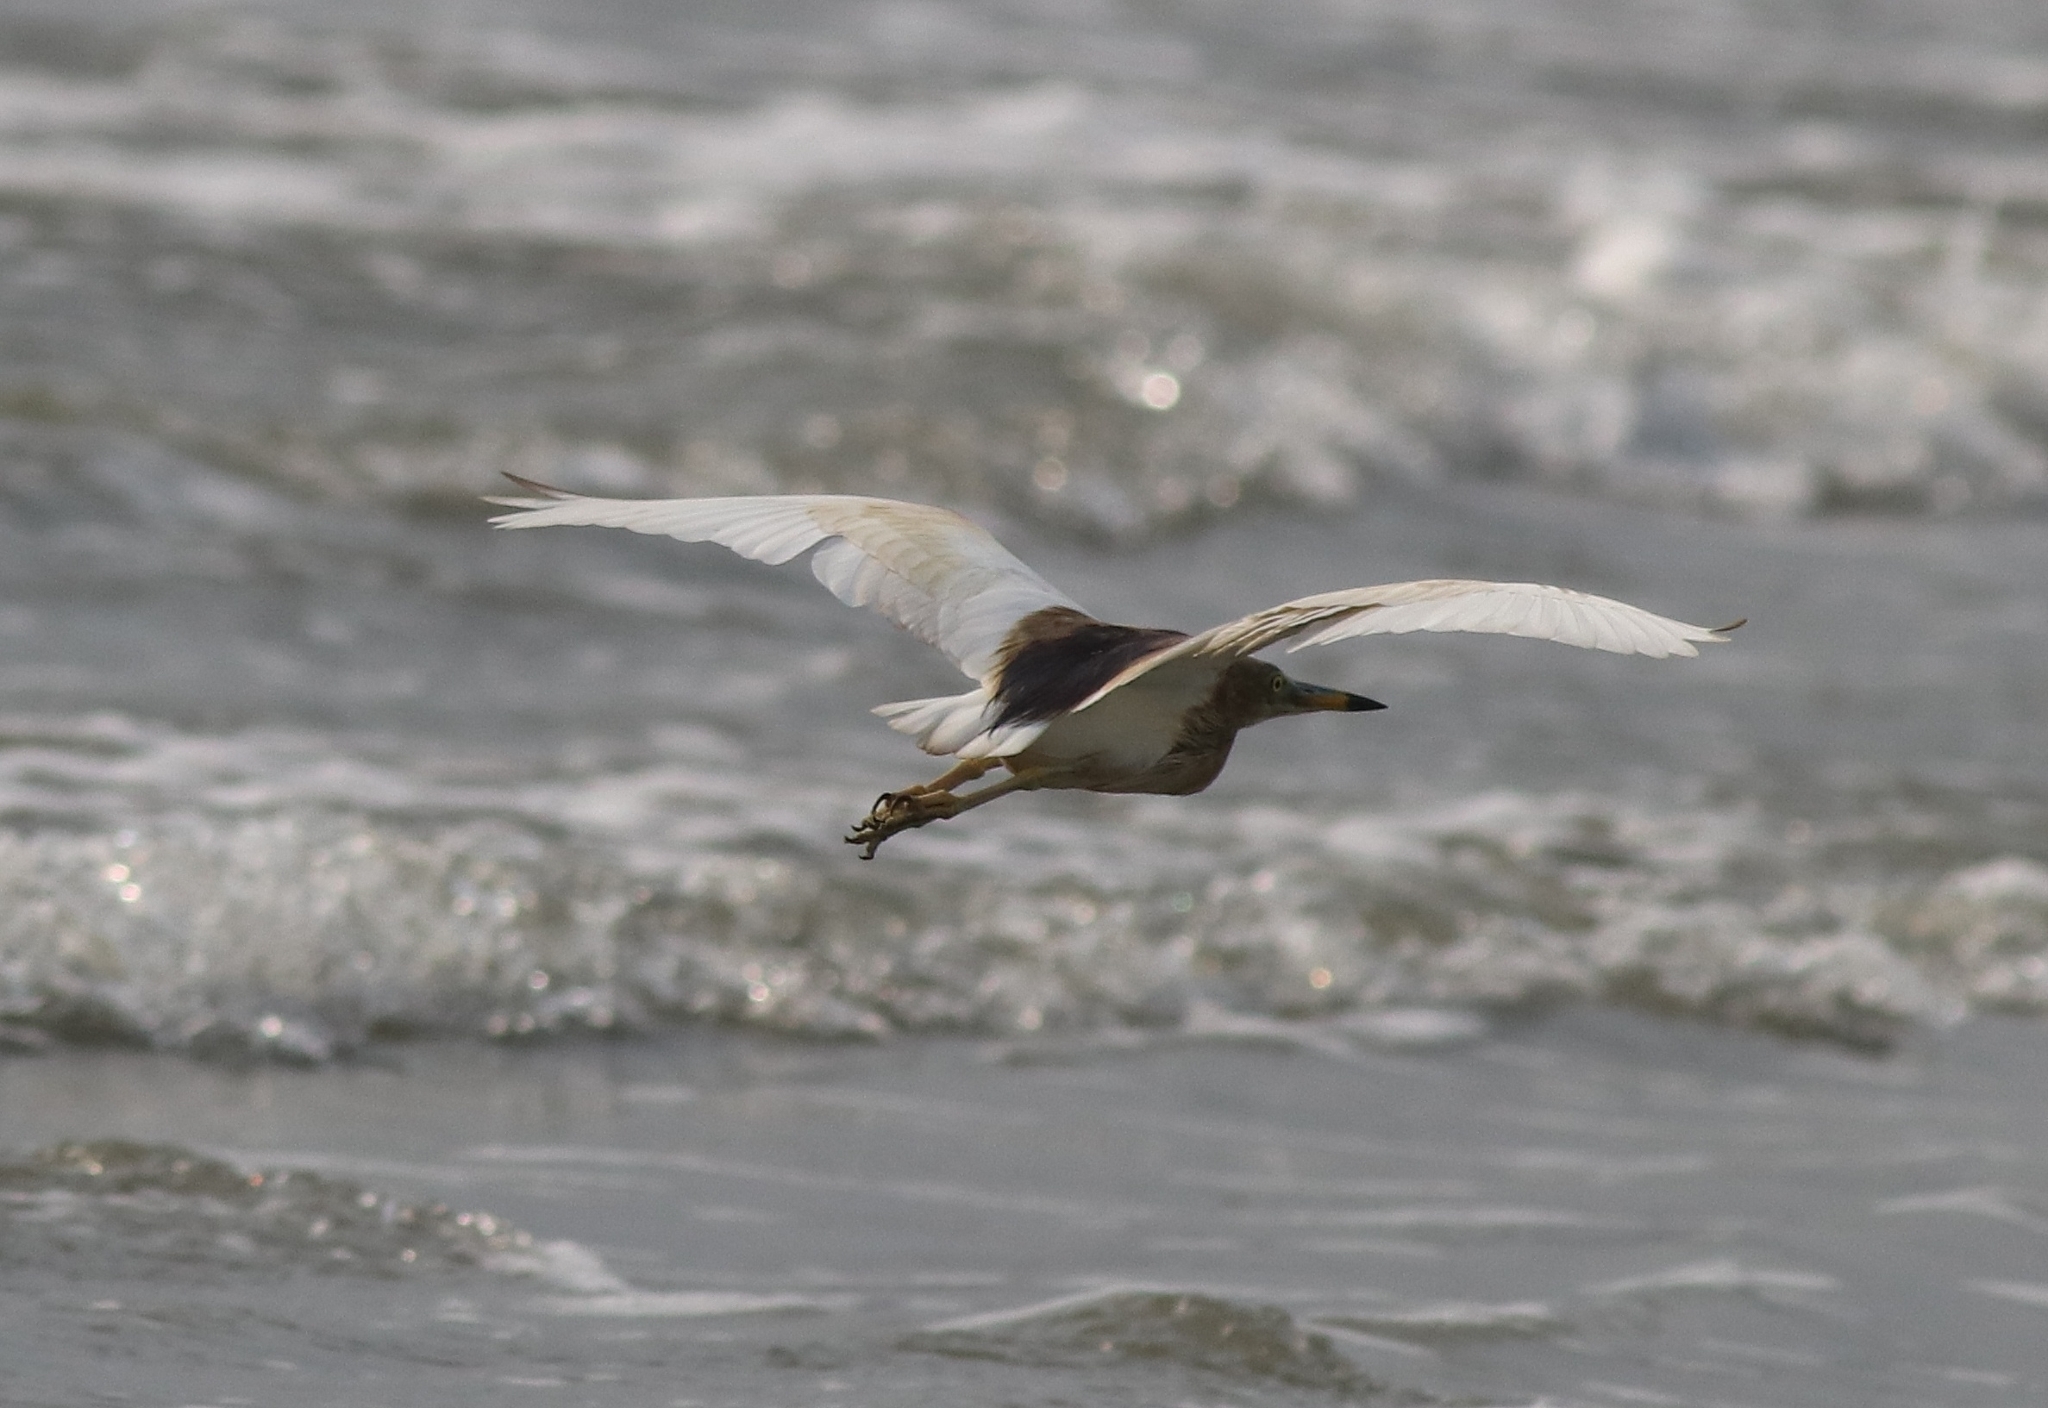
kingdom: Animalia
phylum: Chordata
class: Aves
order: Pelecaniformes
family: Ardeidae
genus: Ardeola
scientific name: Ardeola grayii
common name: Indian pond heron
